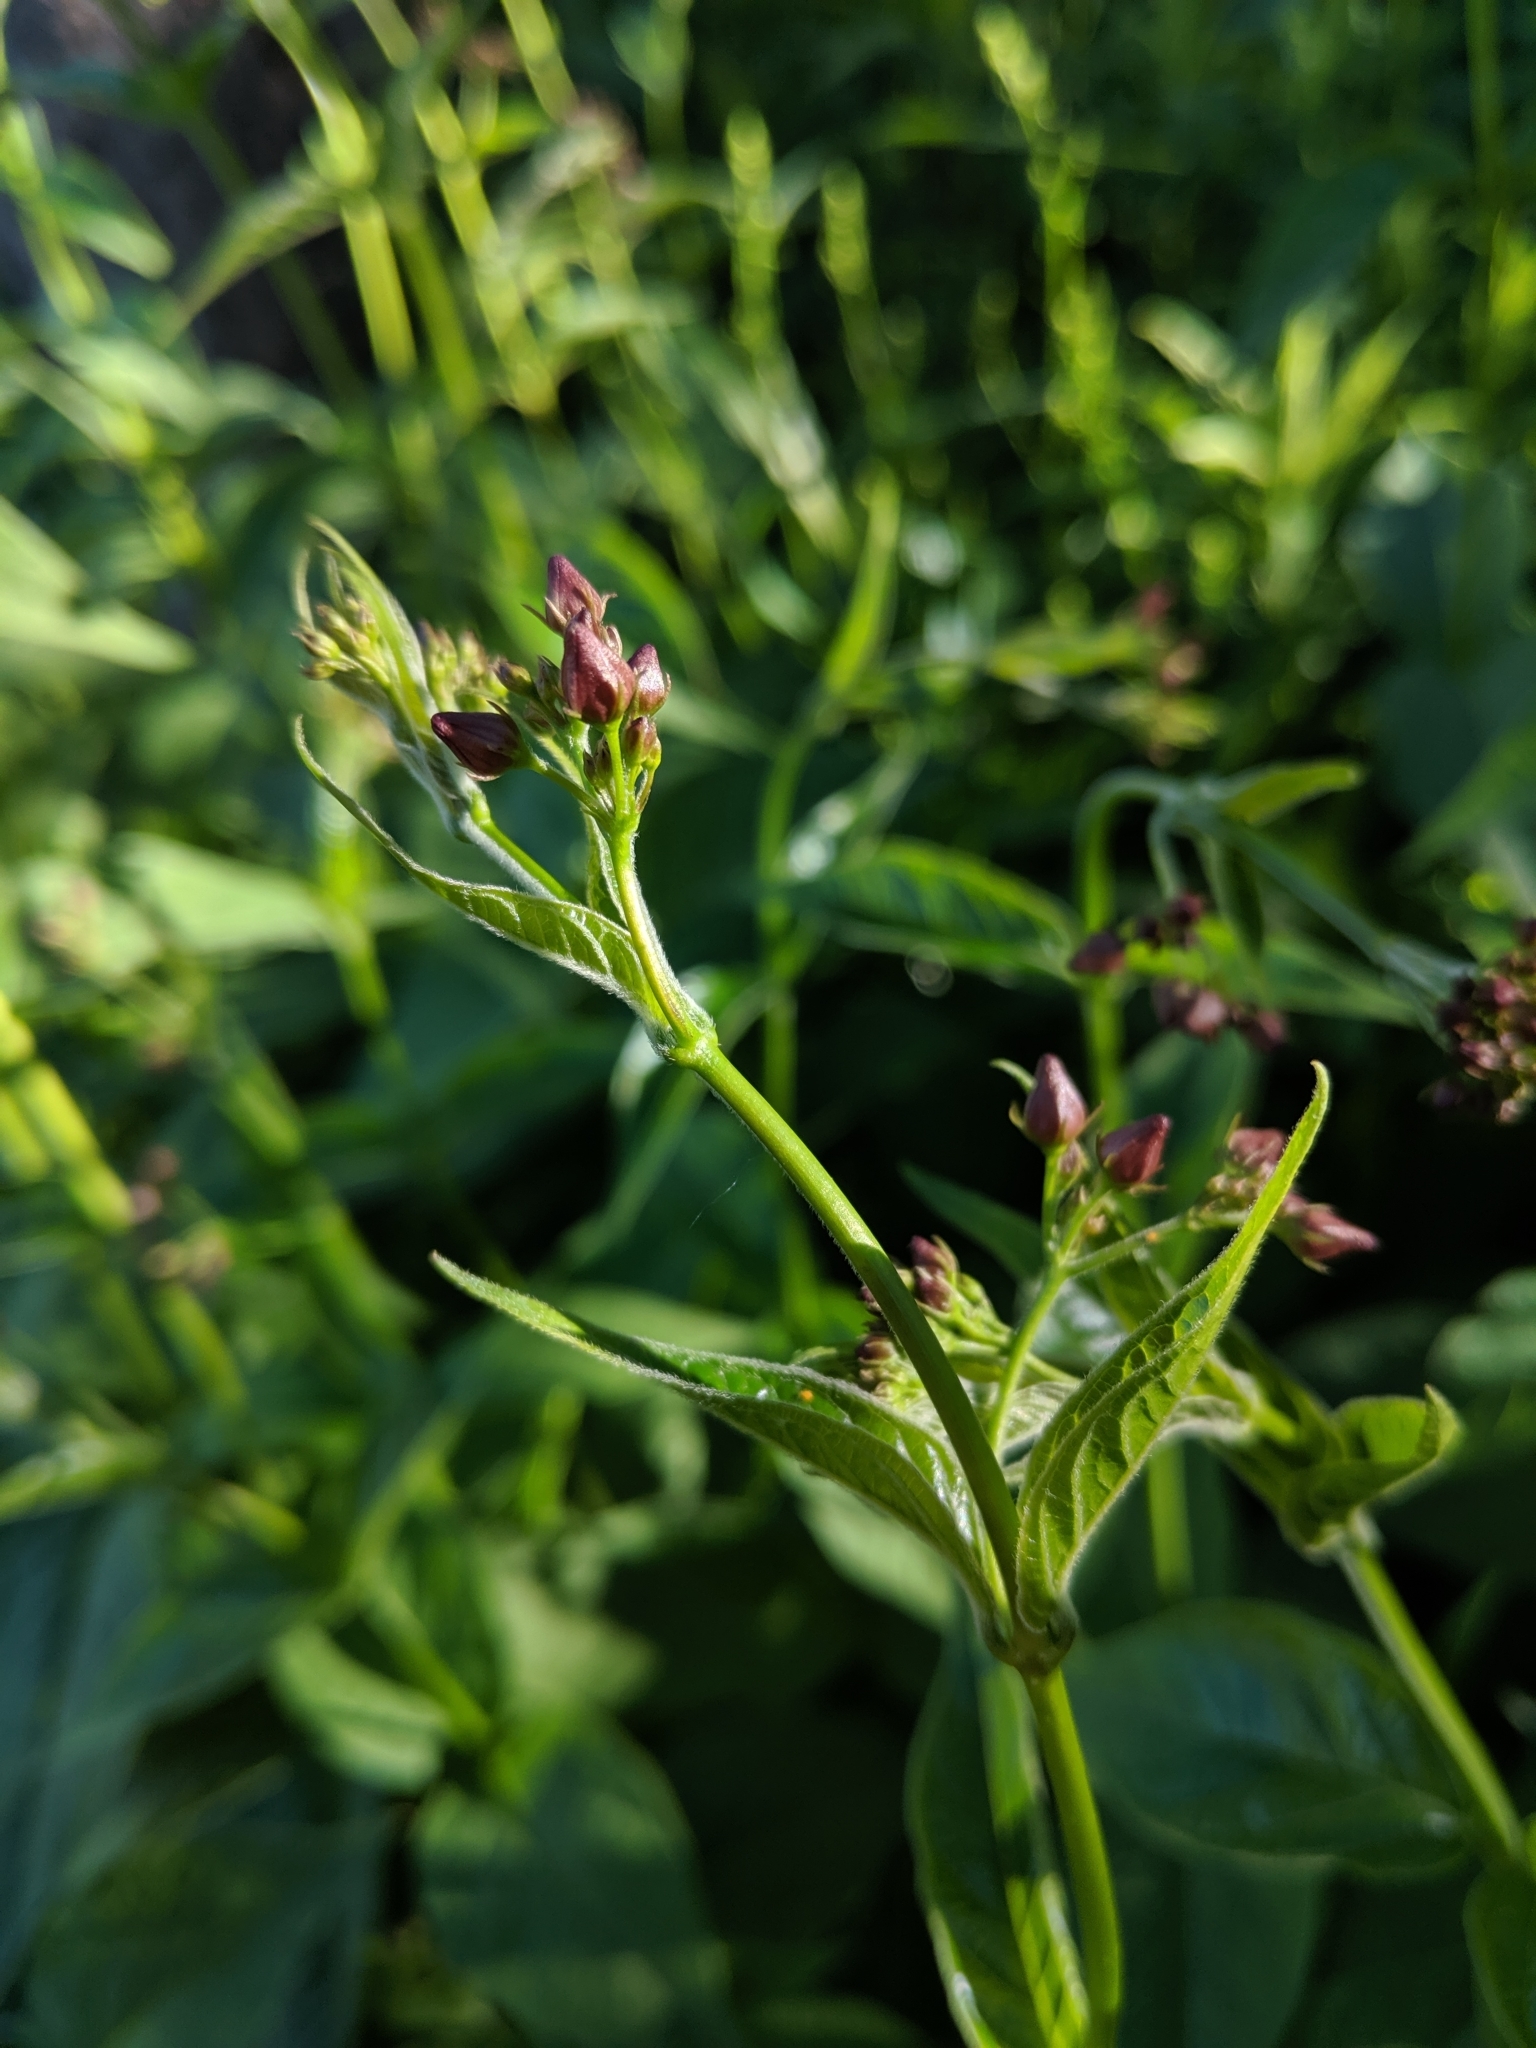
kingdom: Plantae
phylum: Tracheophyta
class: Magnoliopsida
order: Gentianales
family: Apocynaceae
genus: Vincetoxicum
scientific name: Vincetoxicum rossicum
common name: Dog-strangling vine
